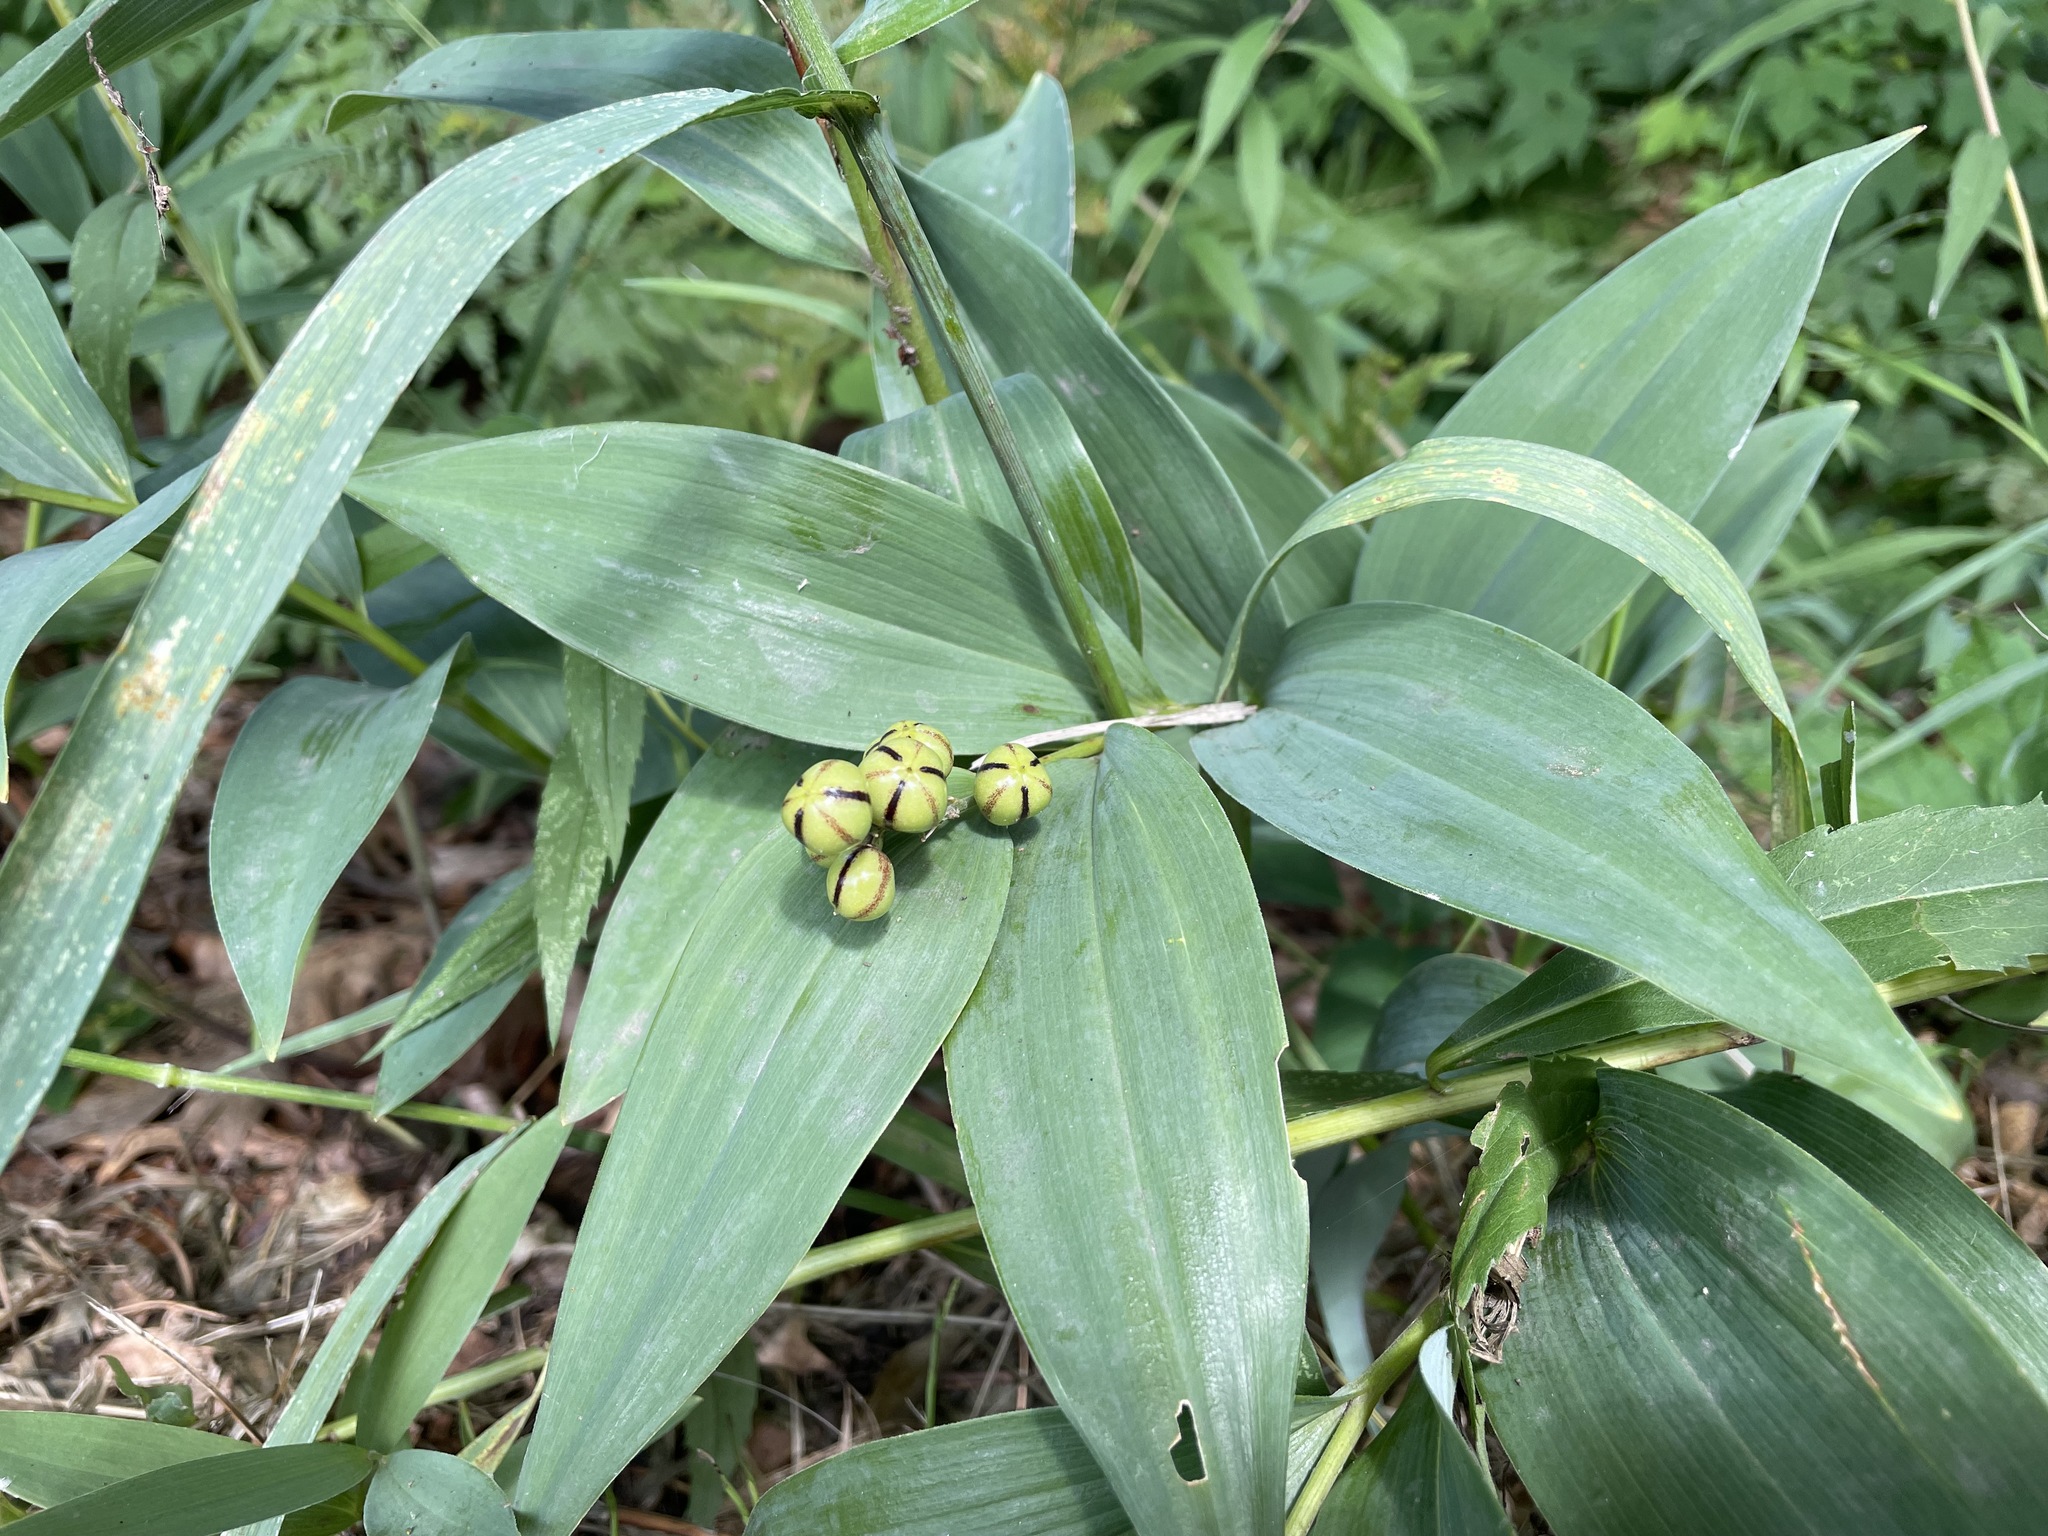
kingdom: Plantae
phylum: Tracheophyta
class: Liliopsida
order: Asparagales
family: Asparagaceae
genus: Maianthemum
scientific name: Maianthemum stellatum
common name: Little false solomon's seal
